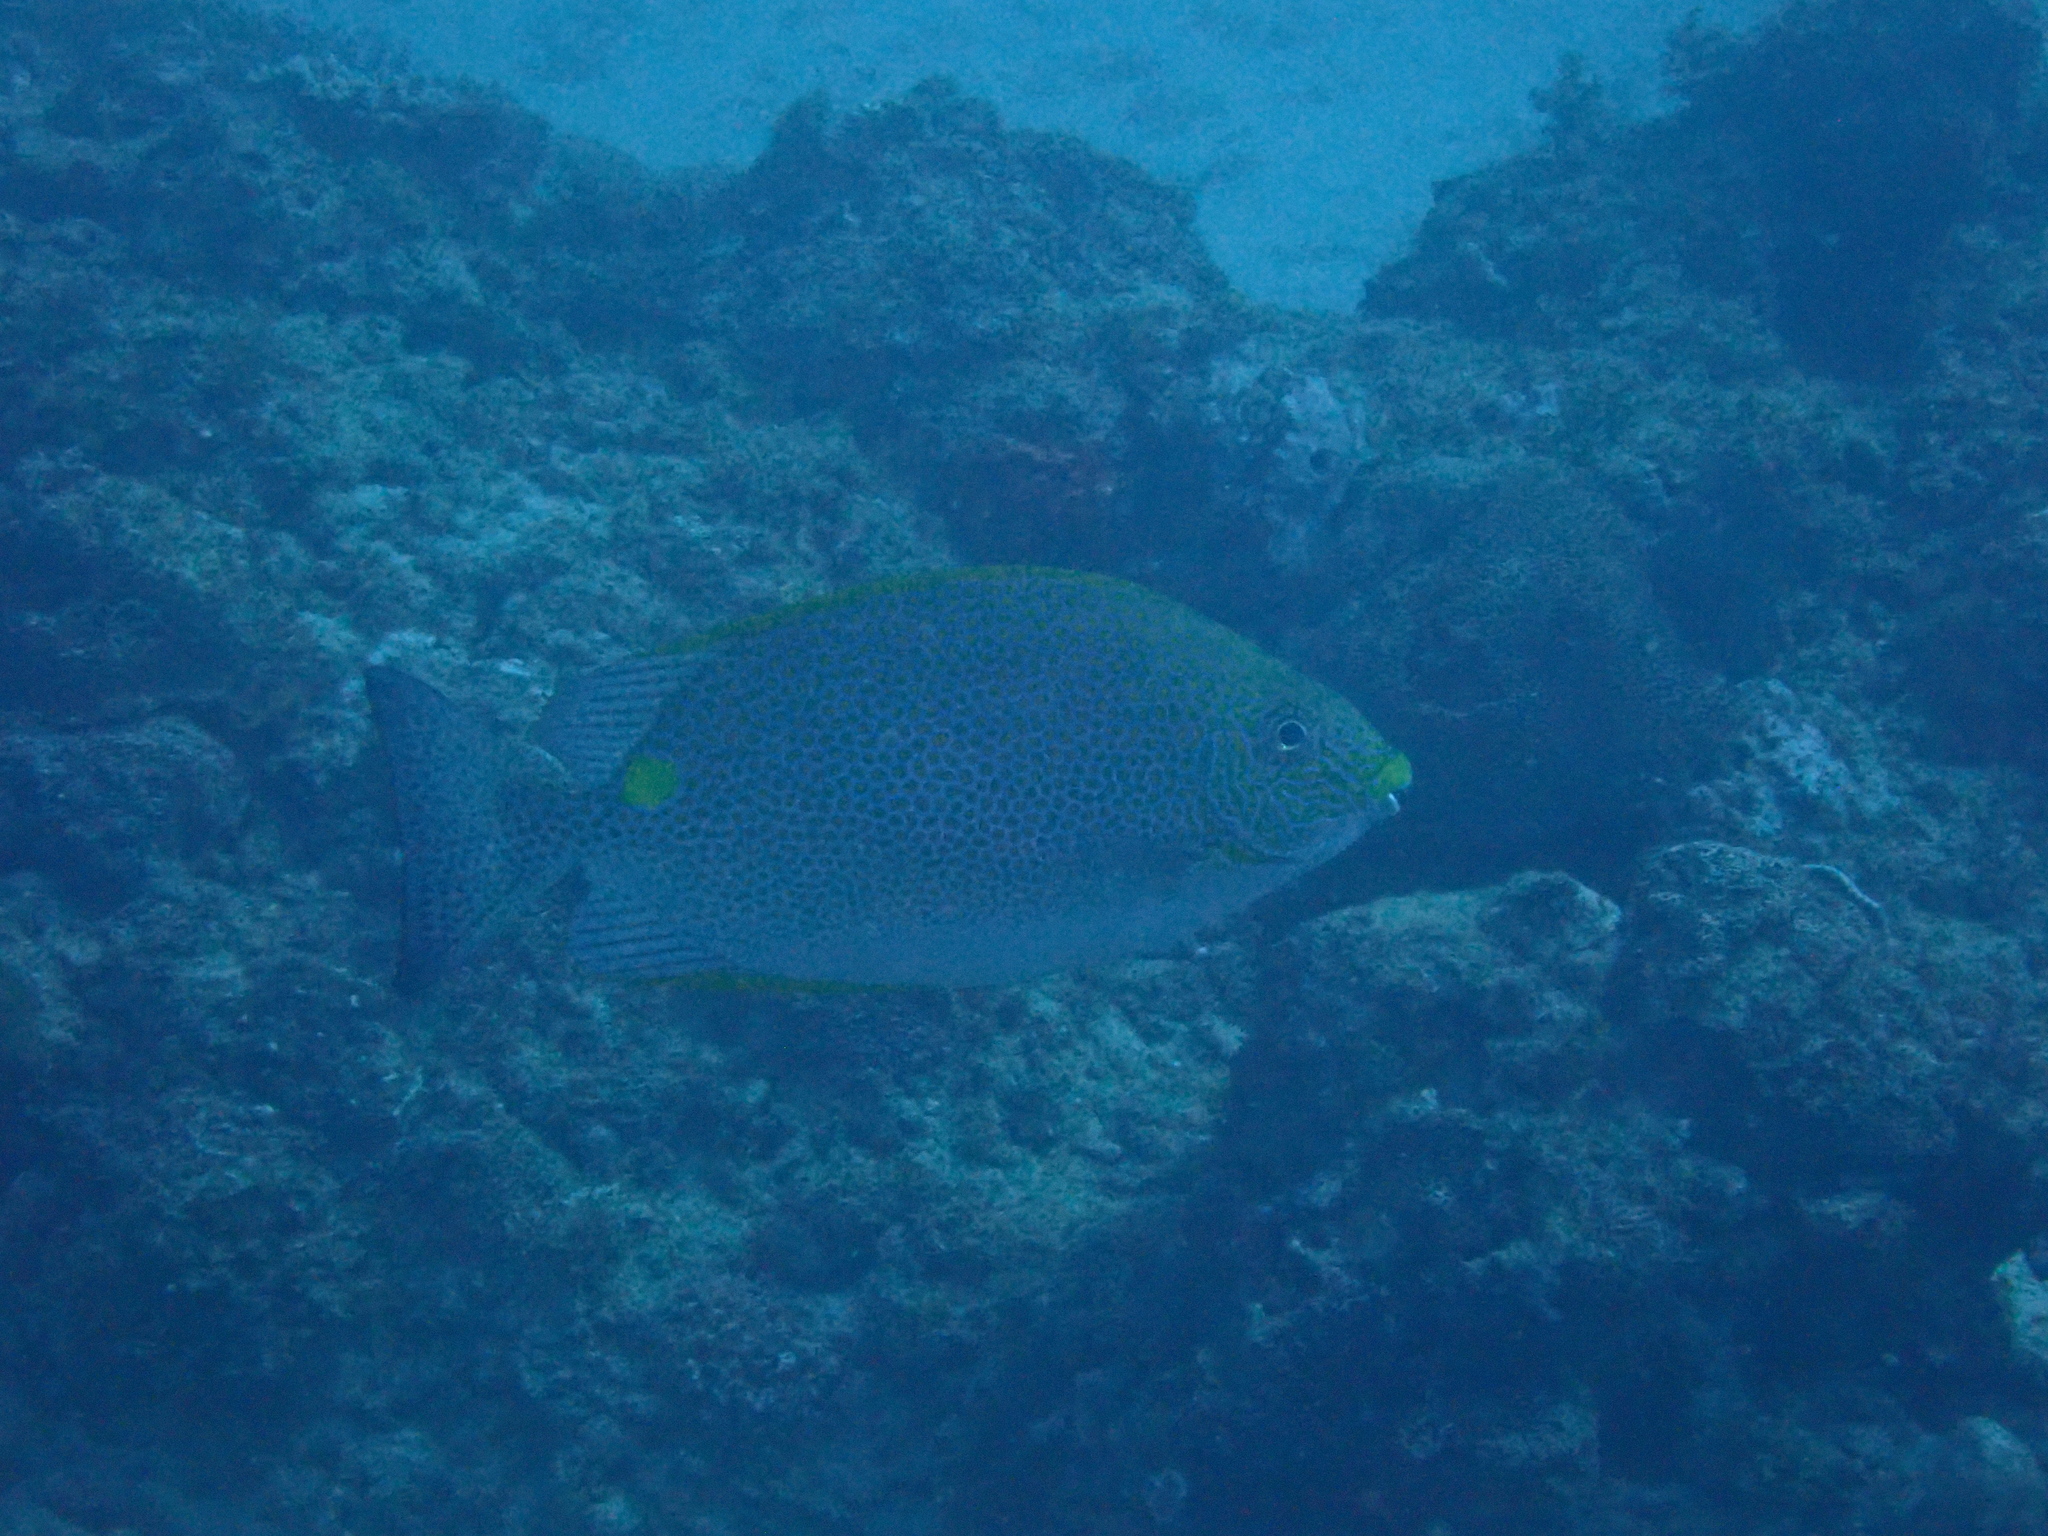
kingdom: Animalia
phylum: Chordata
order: Perciformes
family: Siganidae
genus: Siganus
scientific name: Siganus guttatus
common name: Golden rabbitfish
